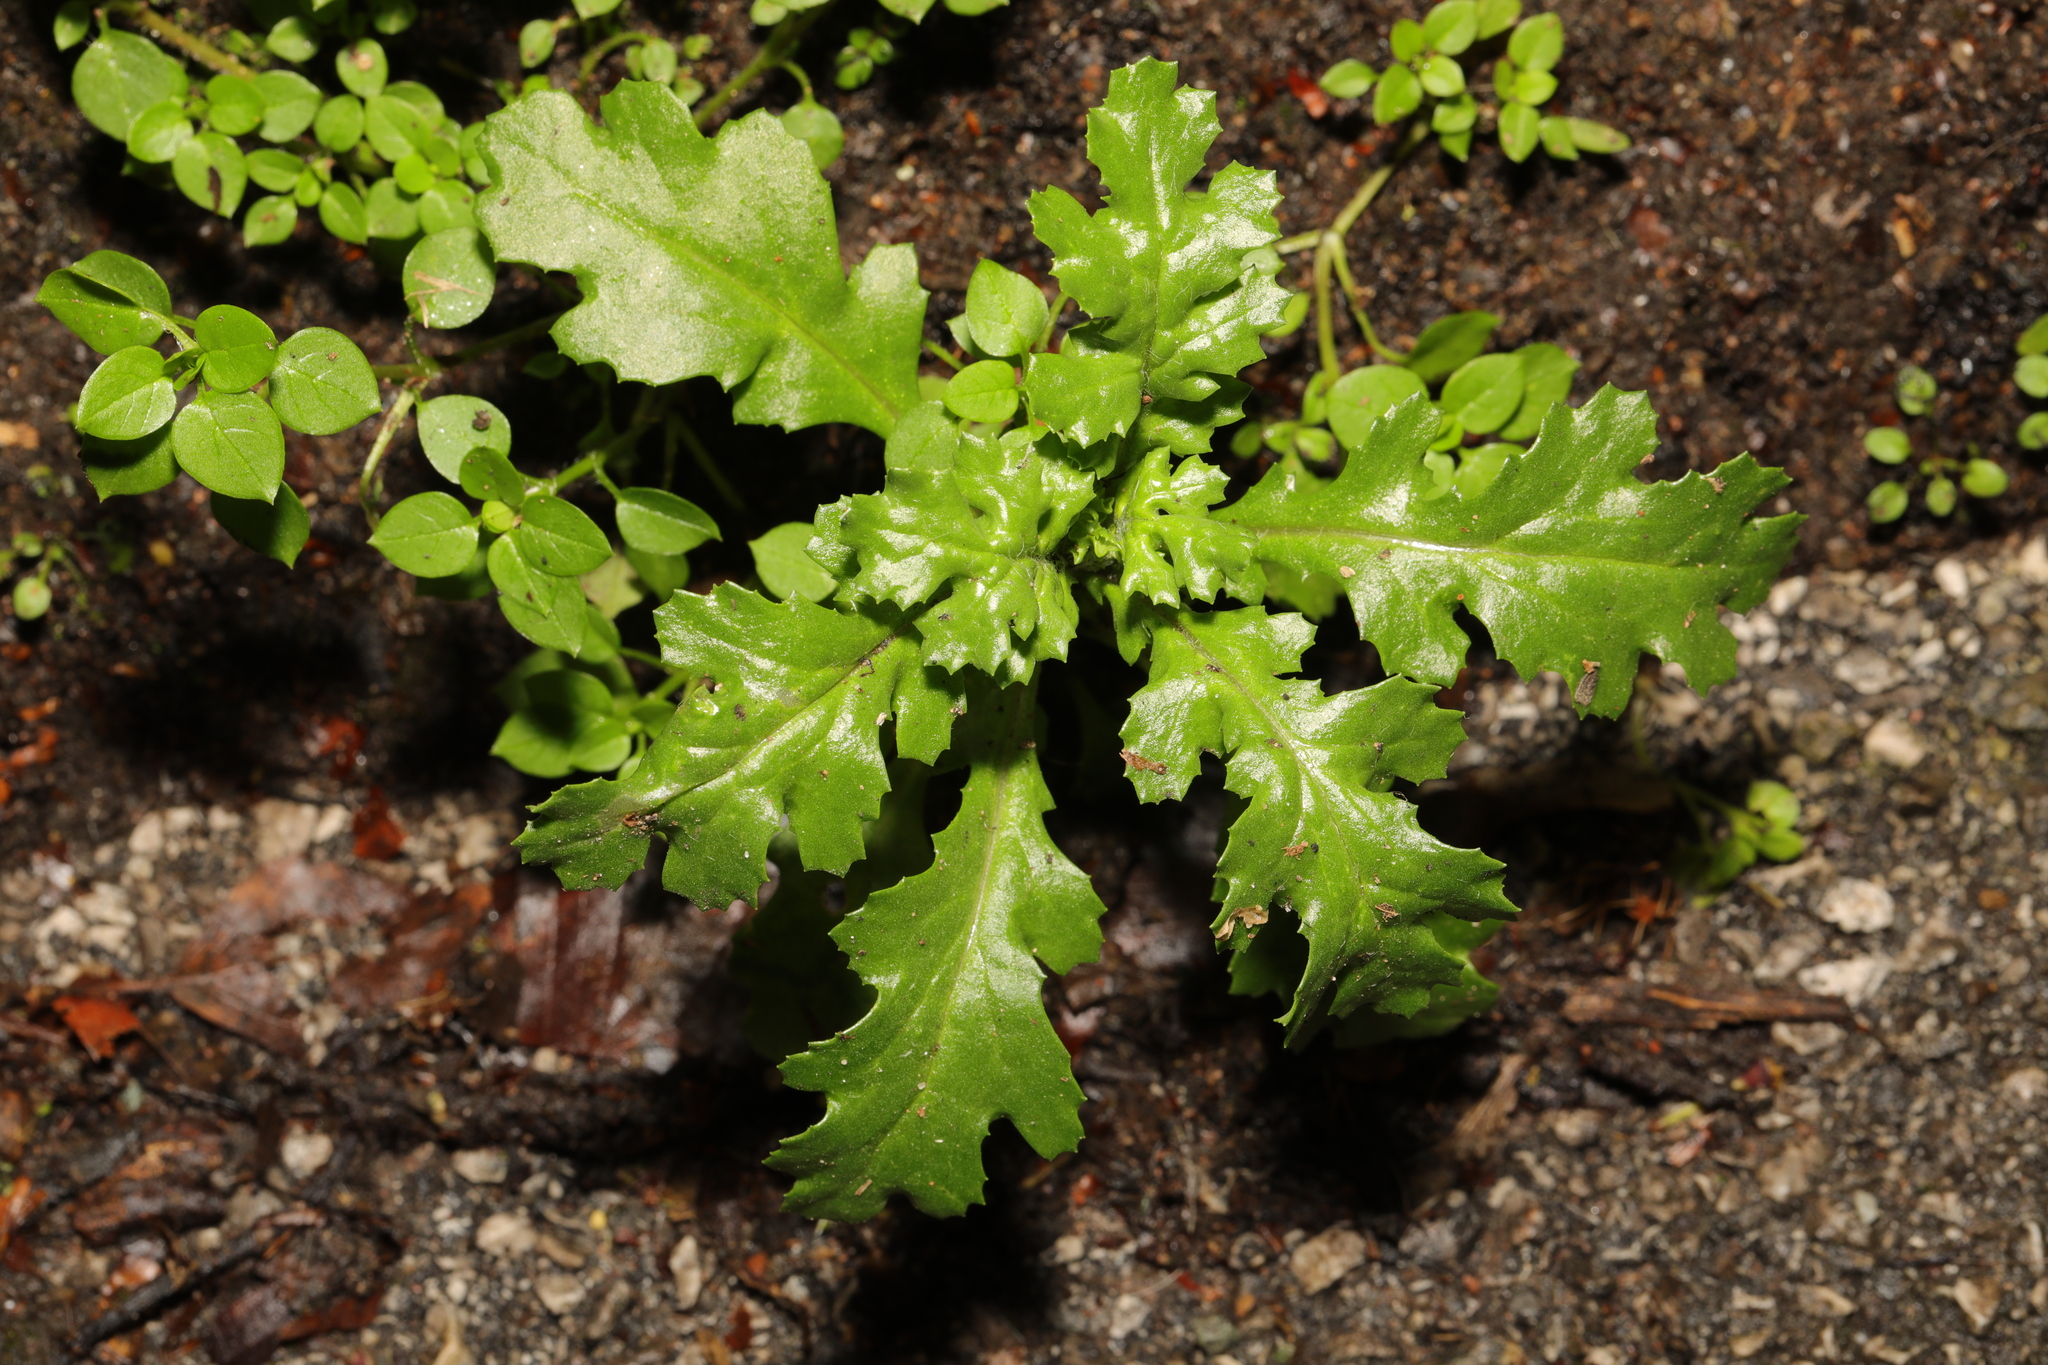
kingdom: Plantae
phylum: Tracheophyta
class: Magnoliopsida
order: Asterales
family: Asteraceae
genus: Senecio
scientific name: Senecio vulgaris
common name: Old-man-in-the-spring
